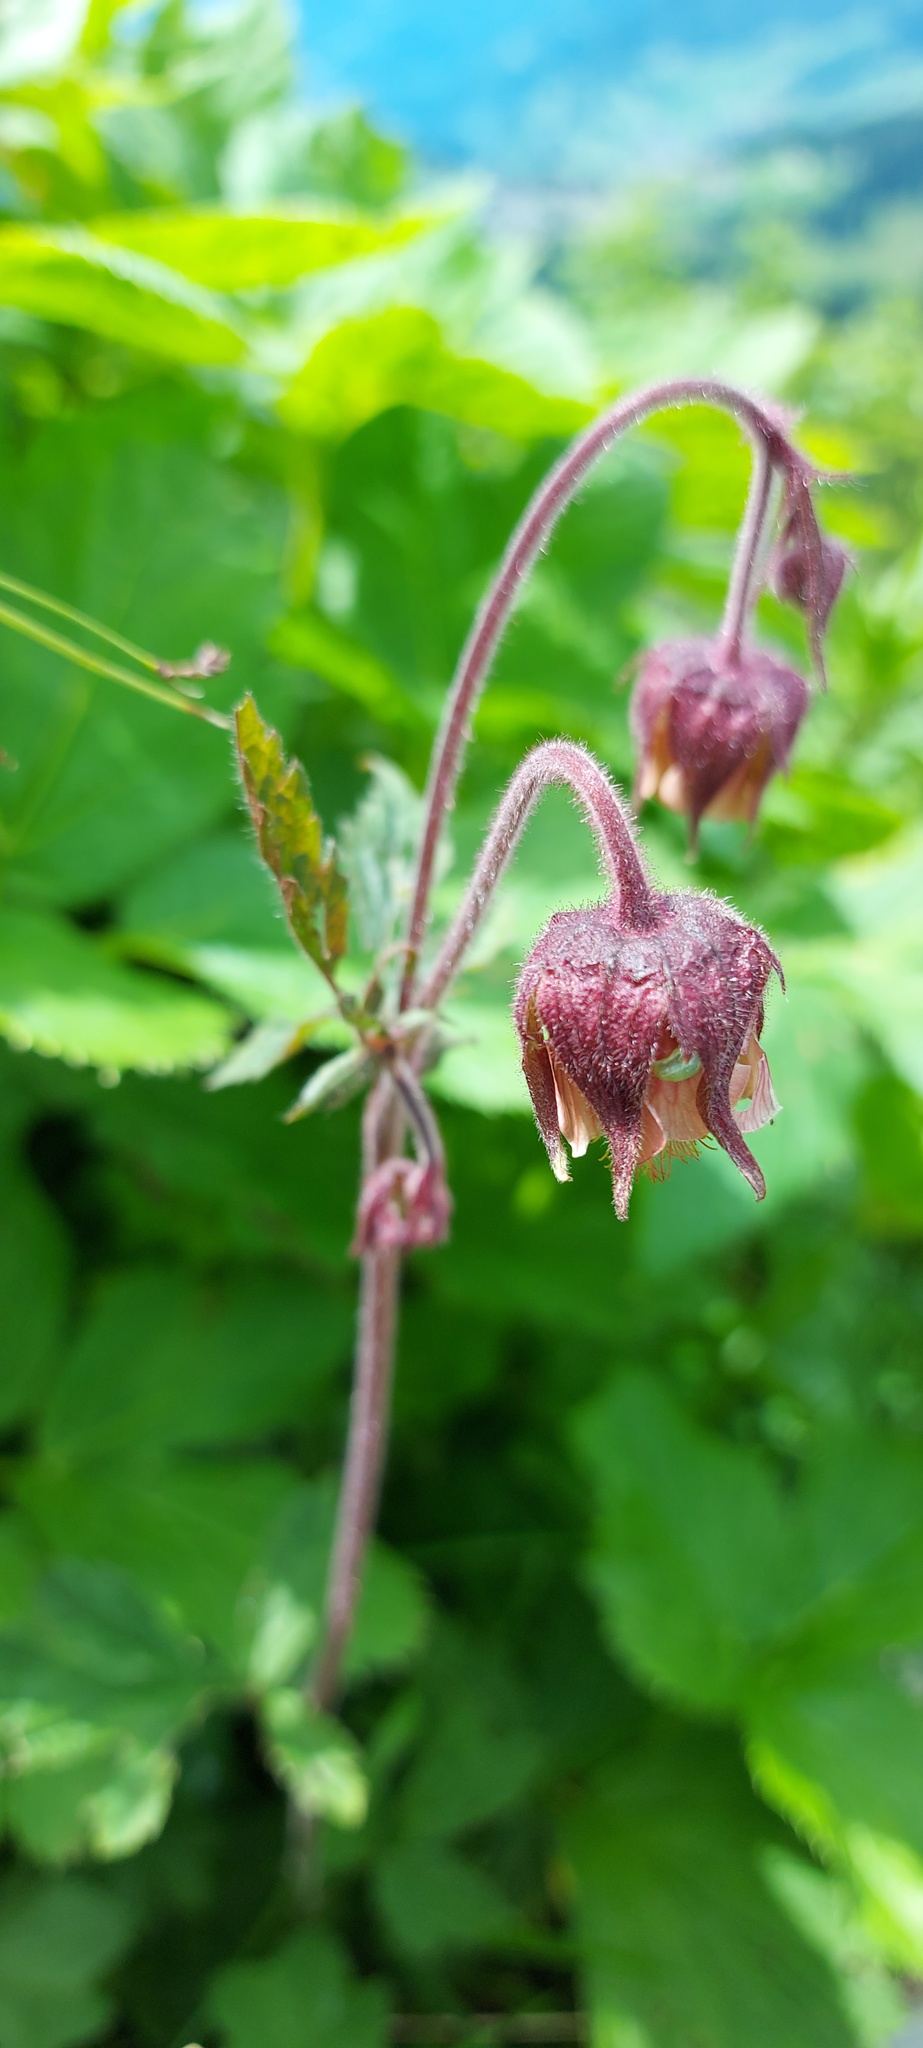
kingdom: Plantae
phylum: Tracheophyta
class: Magnoliopsida
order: Rosales
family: Rosaceae
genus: Geum
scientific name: Geum rivale
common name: Water avens
